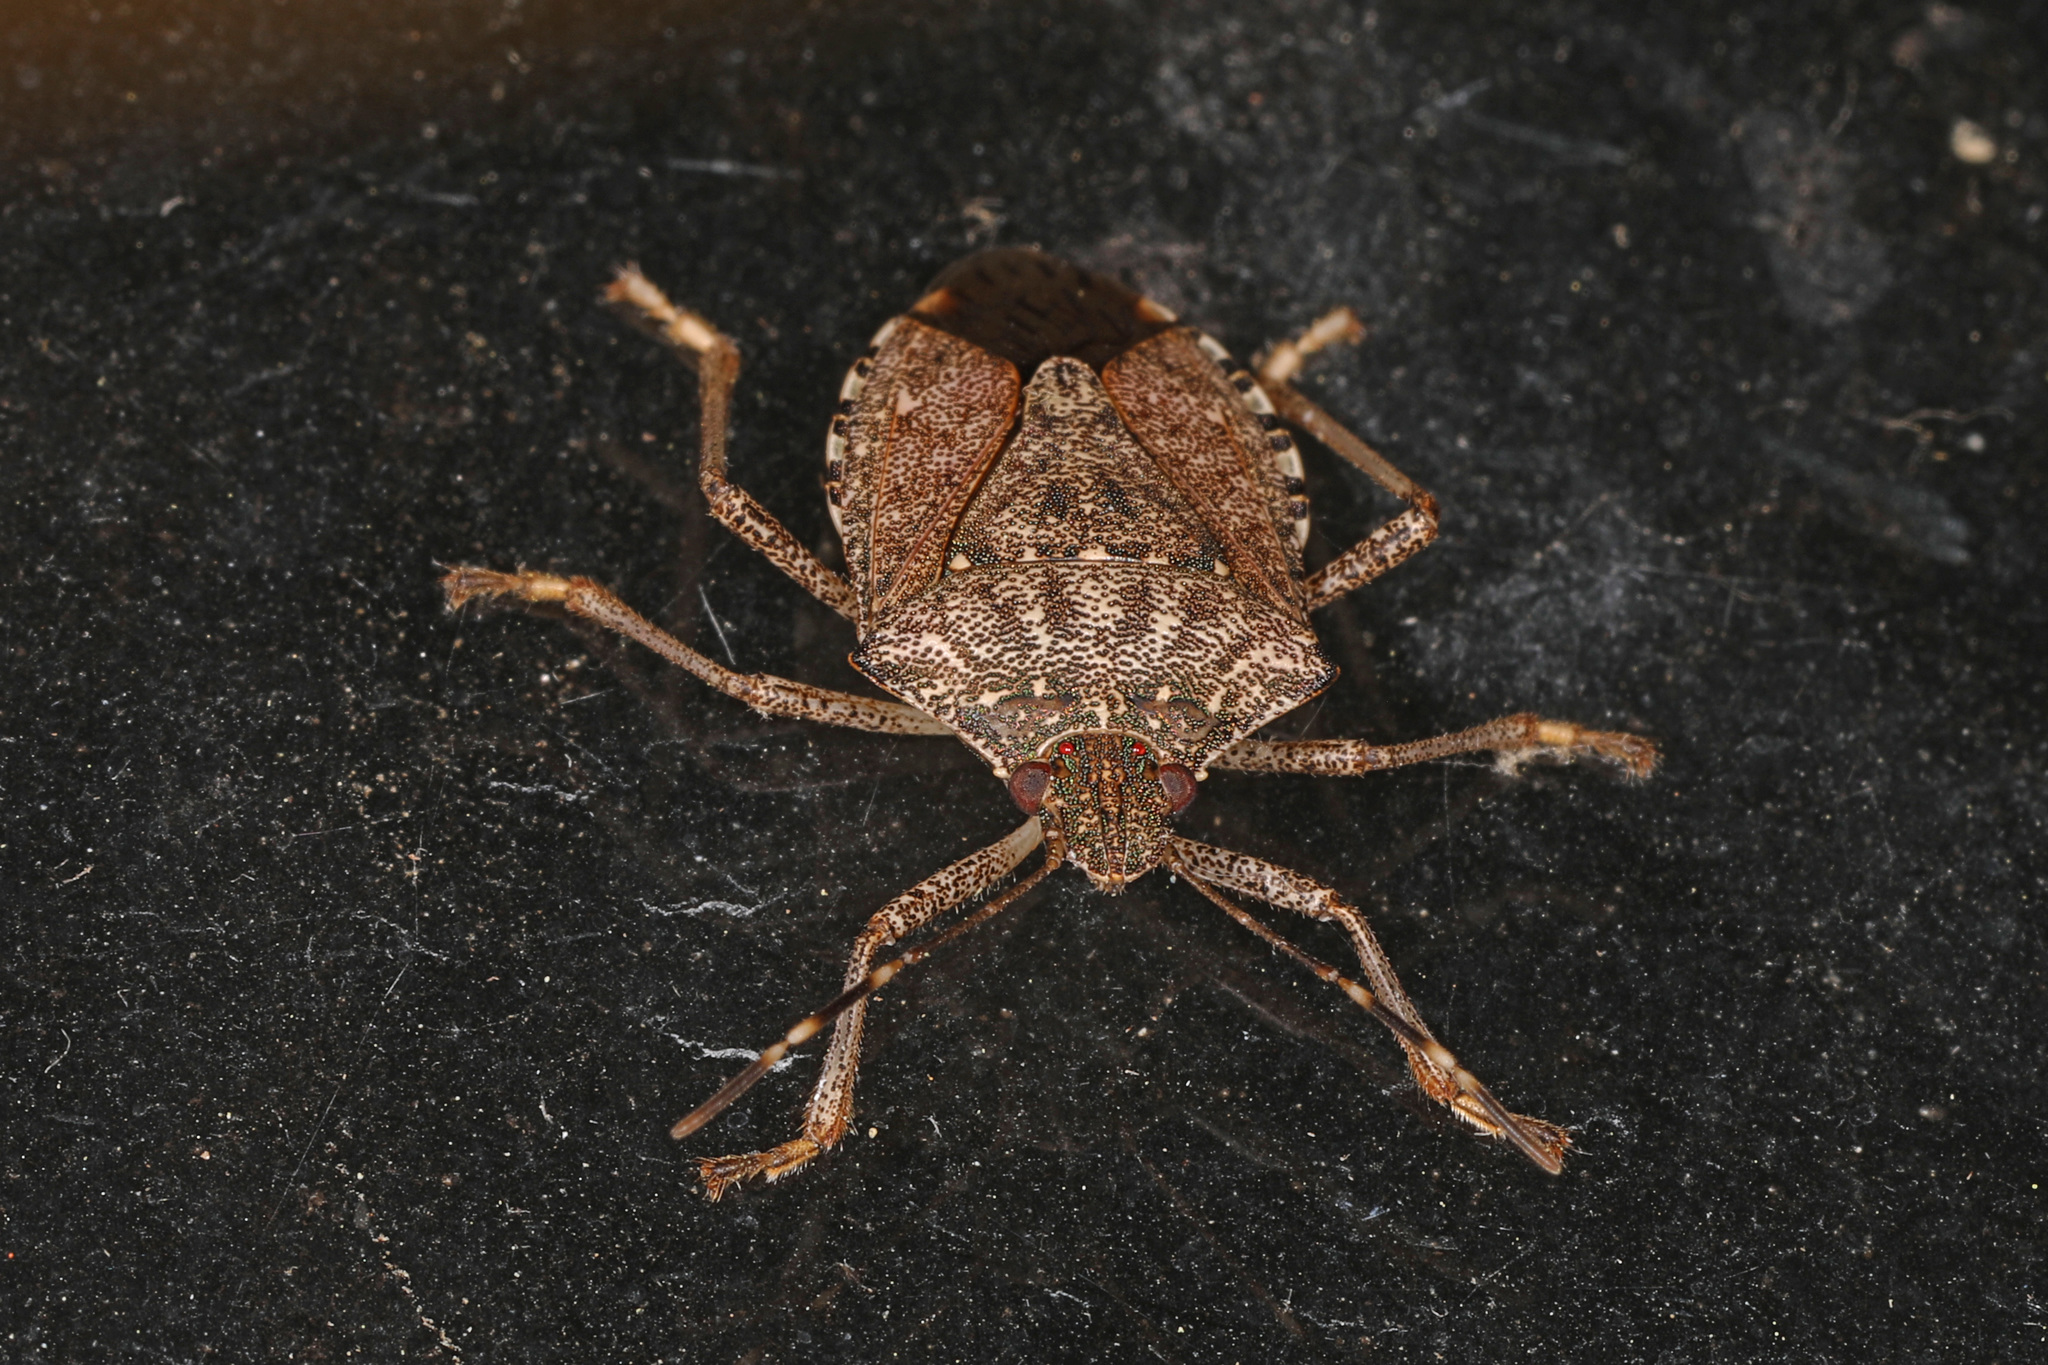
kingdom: Animalia
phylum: Arthropoda
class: Insecta
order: Hemiptera
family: Pentatomidae
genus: Halyomorpha
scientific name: Halyomorpha halys
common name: Brown marmorated stink bug
